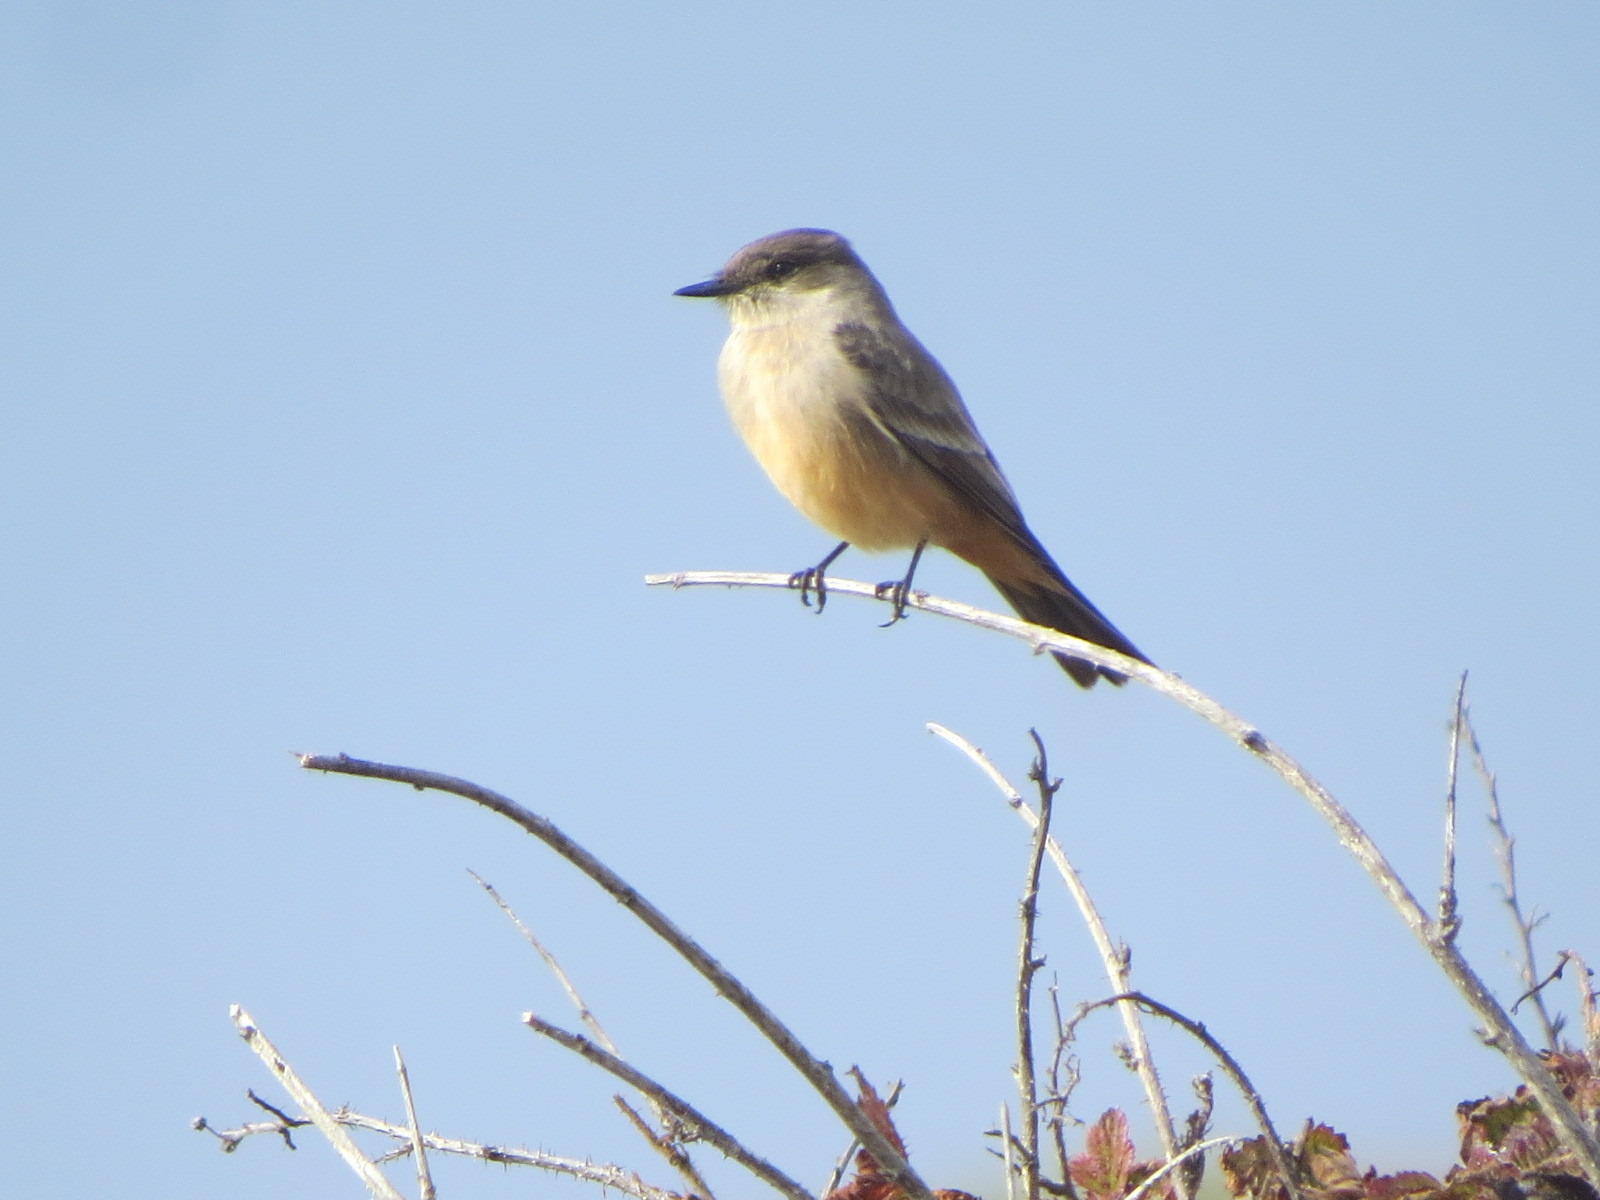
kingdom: Animalia
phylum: Chordata
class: Aves
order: Passeriformes
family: Tyrannidae
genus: Sayornis
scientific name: Sayornis saya
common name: Say's phoebe
